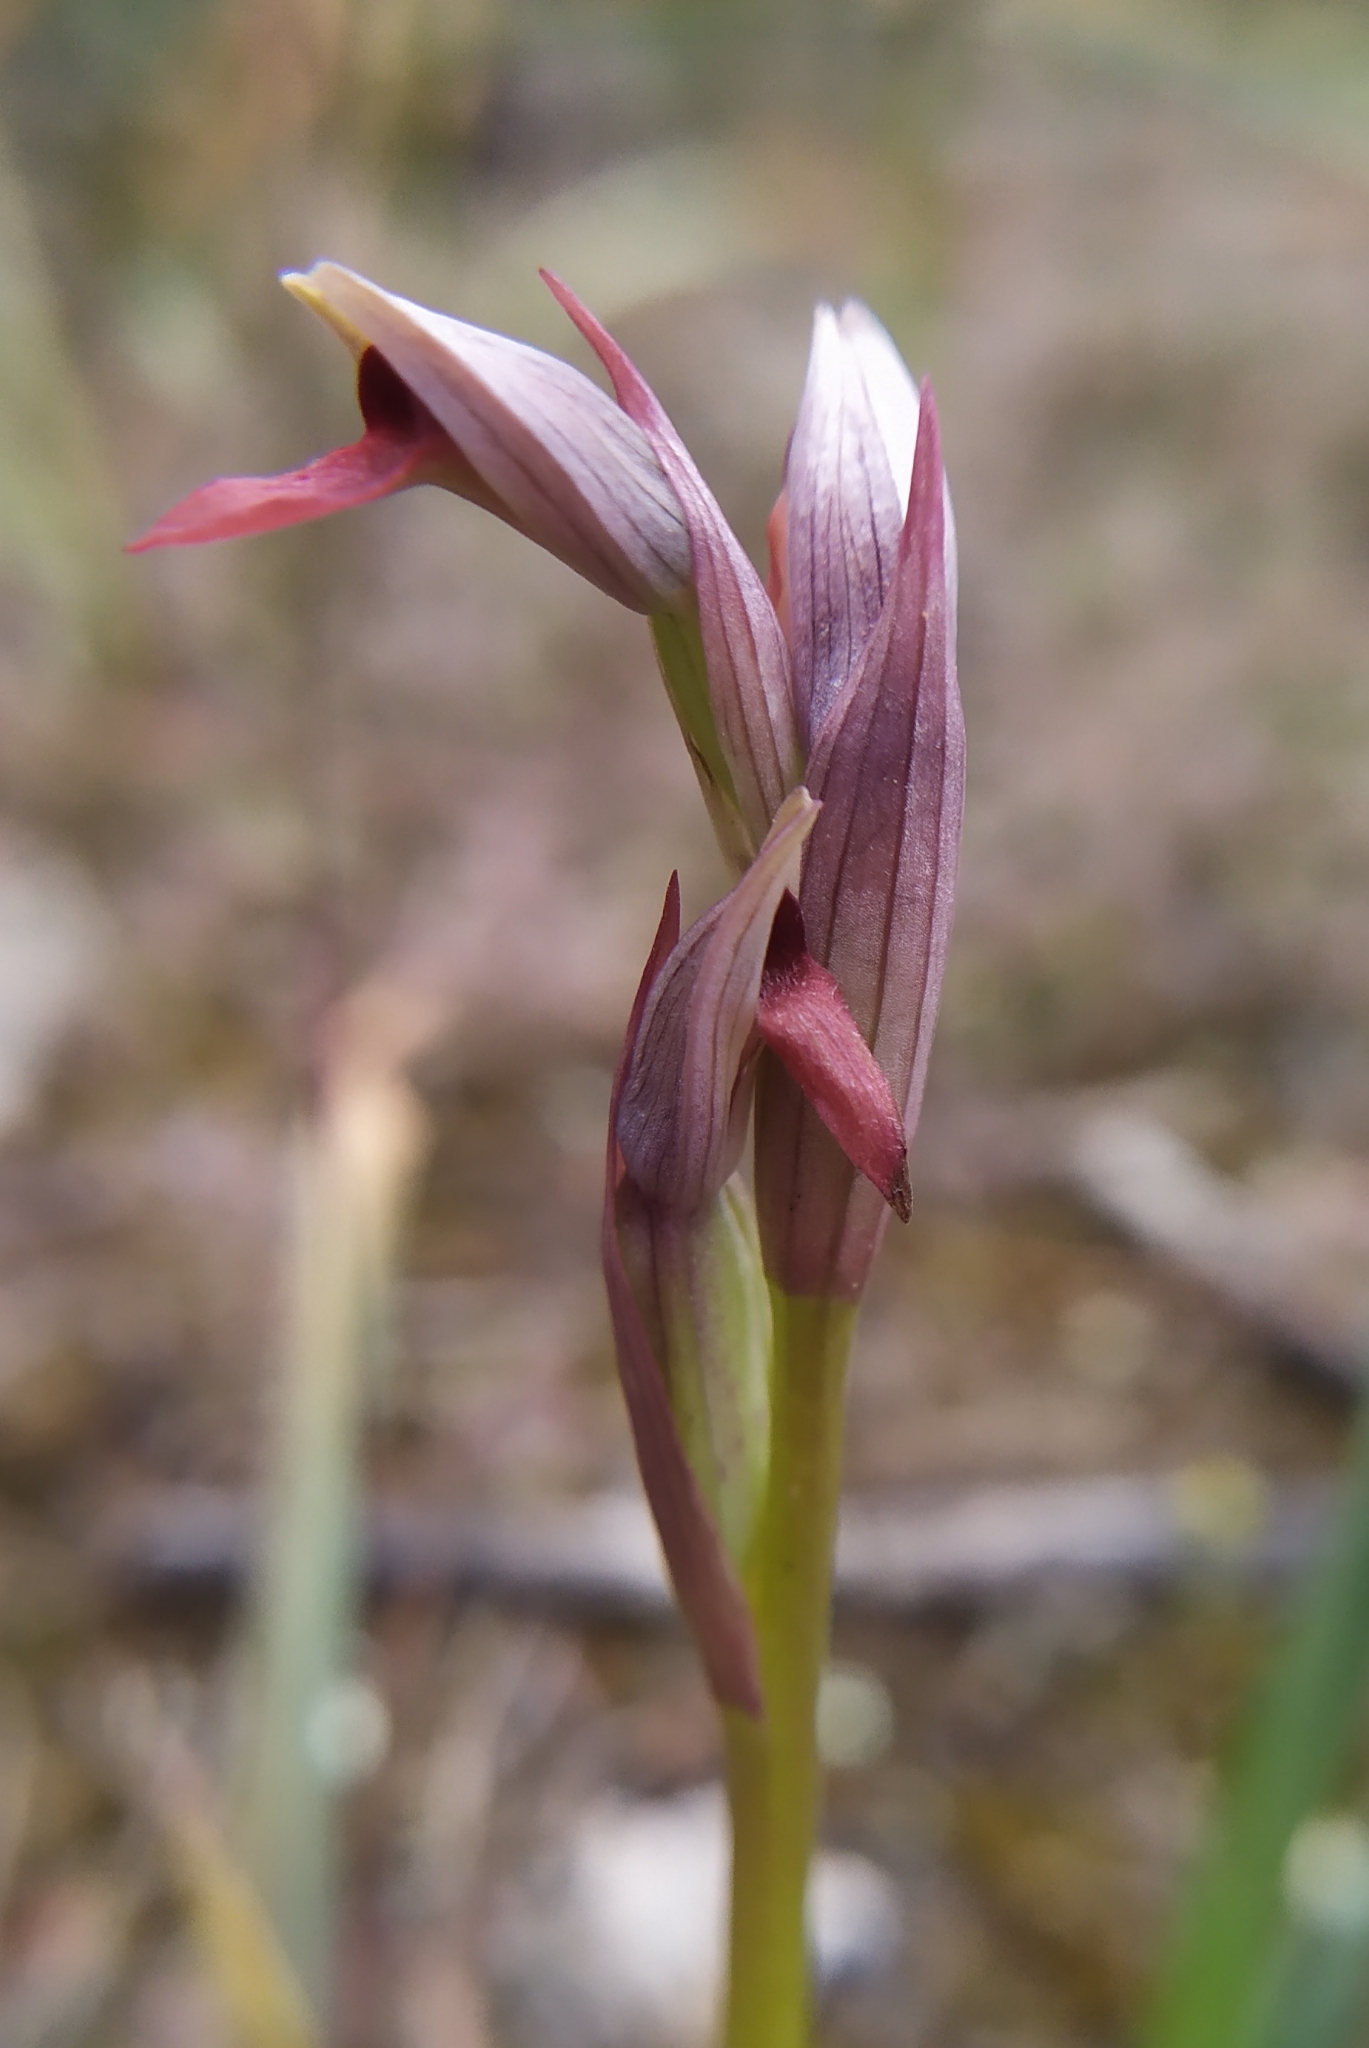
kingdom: Plantae
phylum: Tracheophyta
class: Liliopsida
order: Asparagales
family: Orchidaceae
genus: Serapias
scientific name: Serapias parviflora
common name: Small-flowered tongue-orchid
